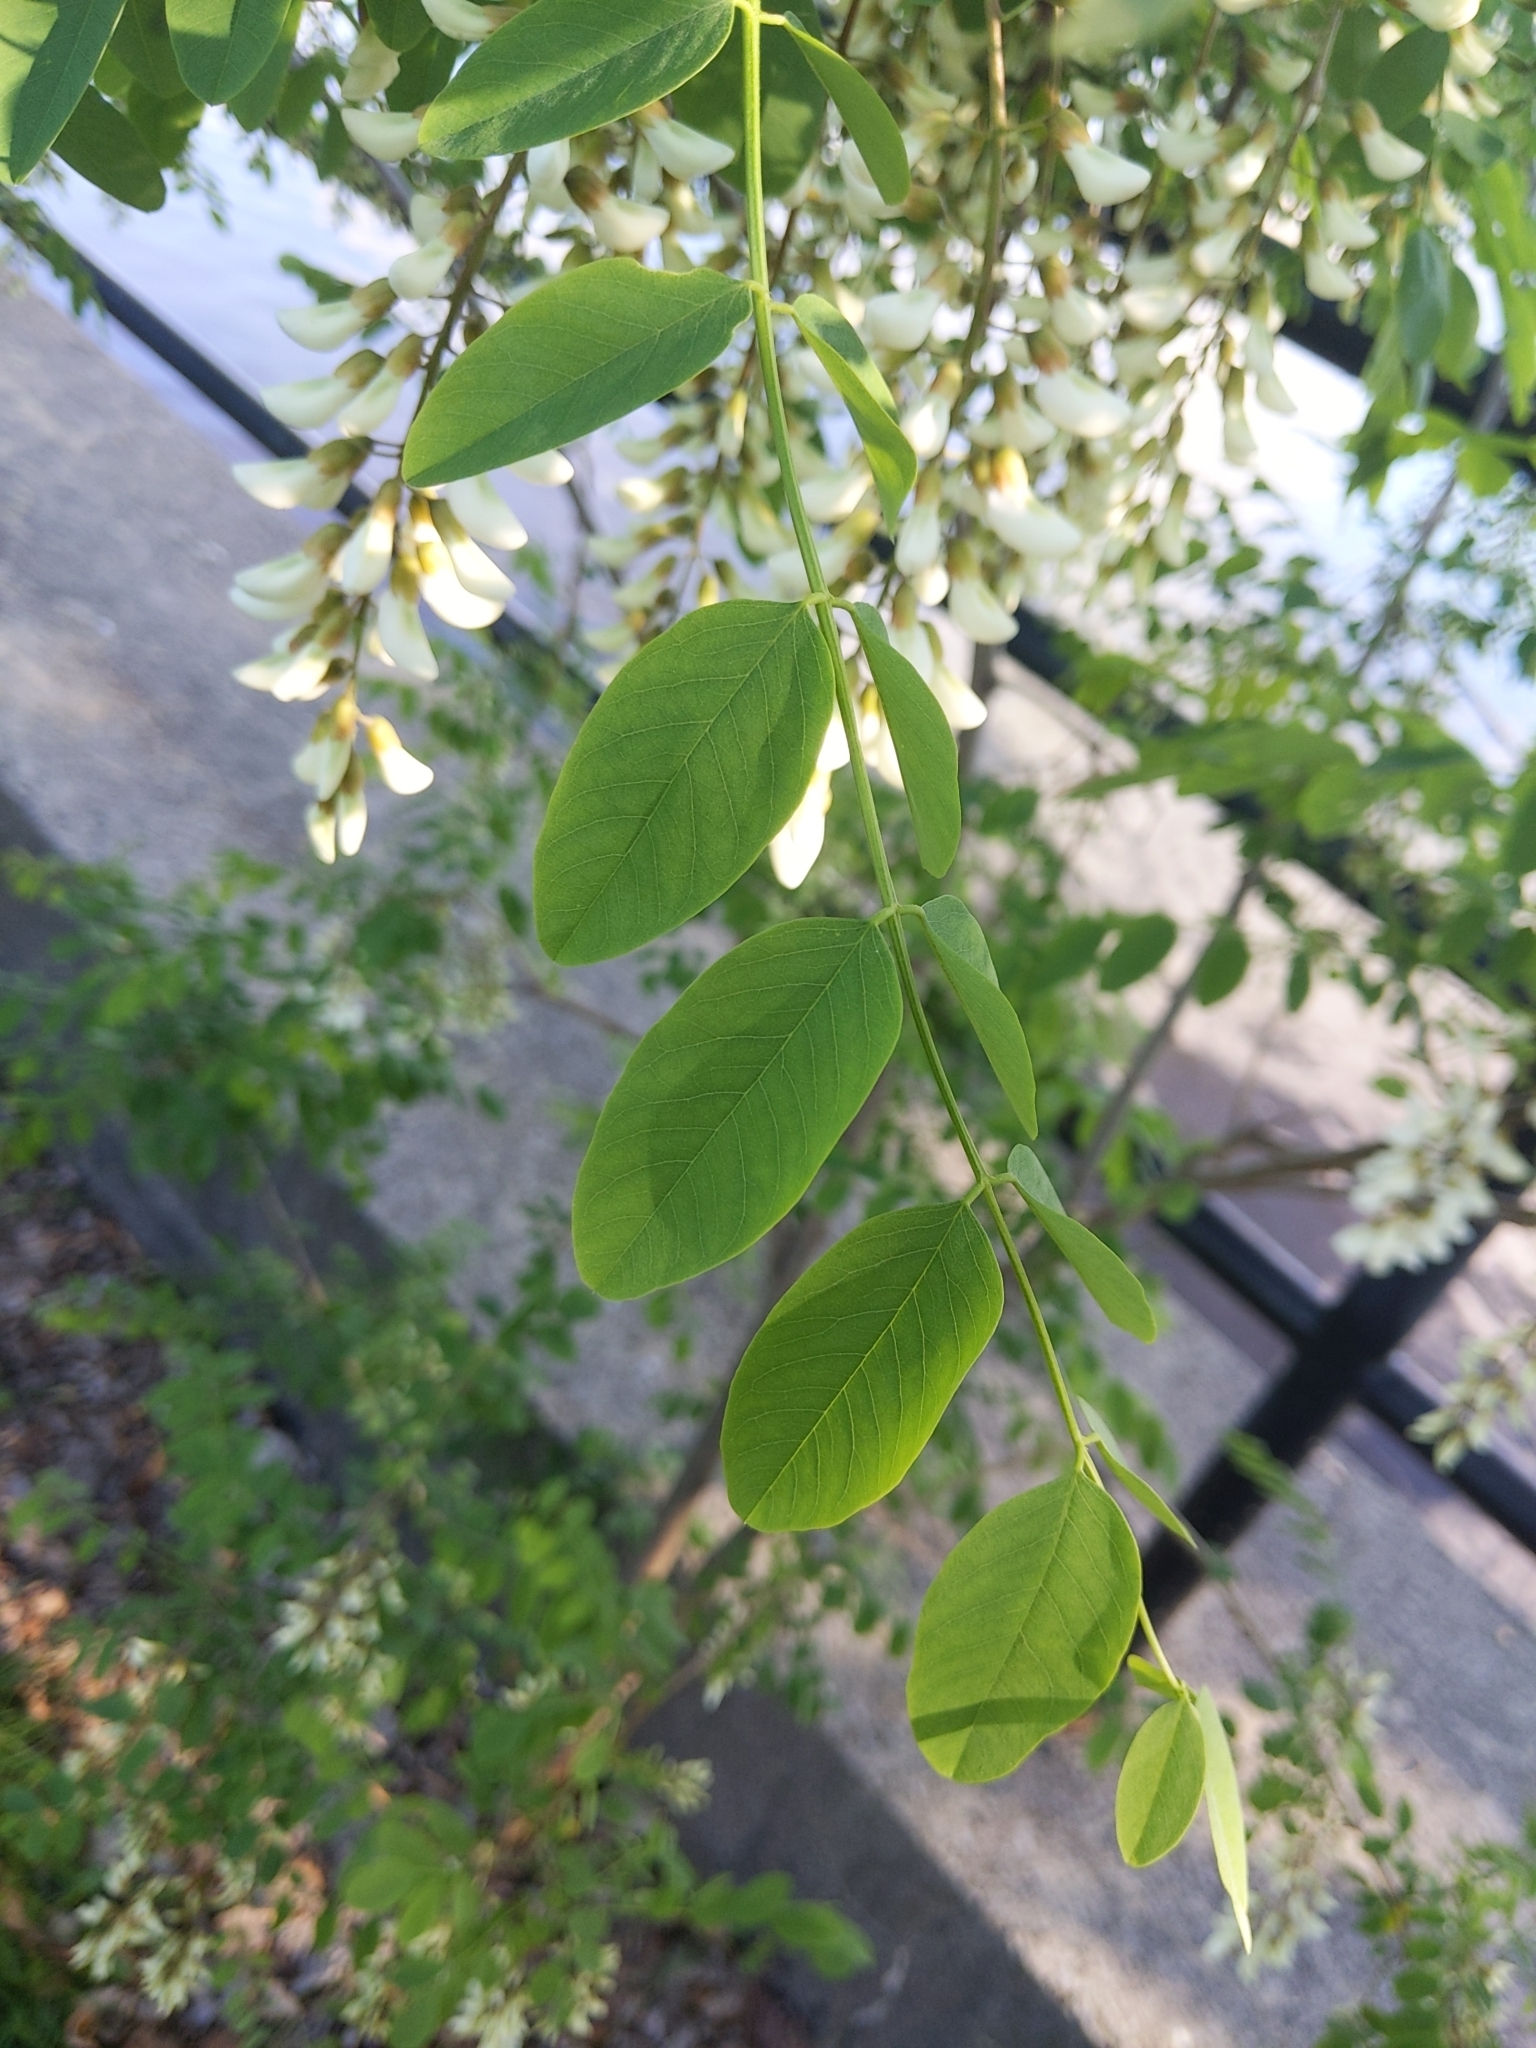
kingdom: Plantae
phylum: Tracheophyta
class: Magnoliopsida
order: Fabales
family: Fabaceae
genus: Robinia
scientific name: Robinia pseudoacacia
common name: Black locust
